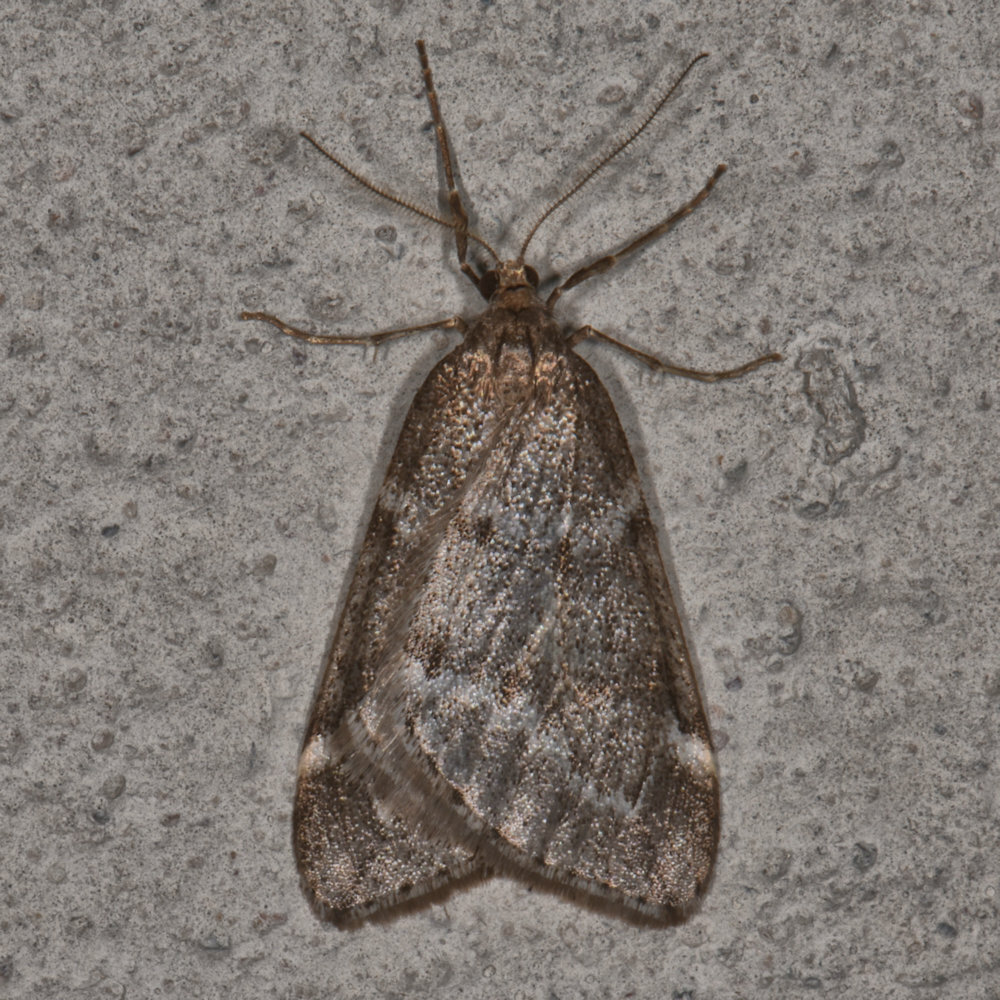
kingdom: Animalia
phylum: Arthropoda
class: Insecta
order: Lepidoptera
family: Geometridae
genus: Alsophila
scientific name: Alsophila pometaria
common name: Fall cankerworm
